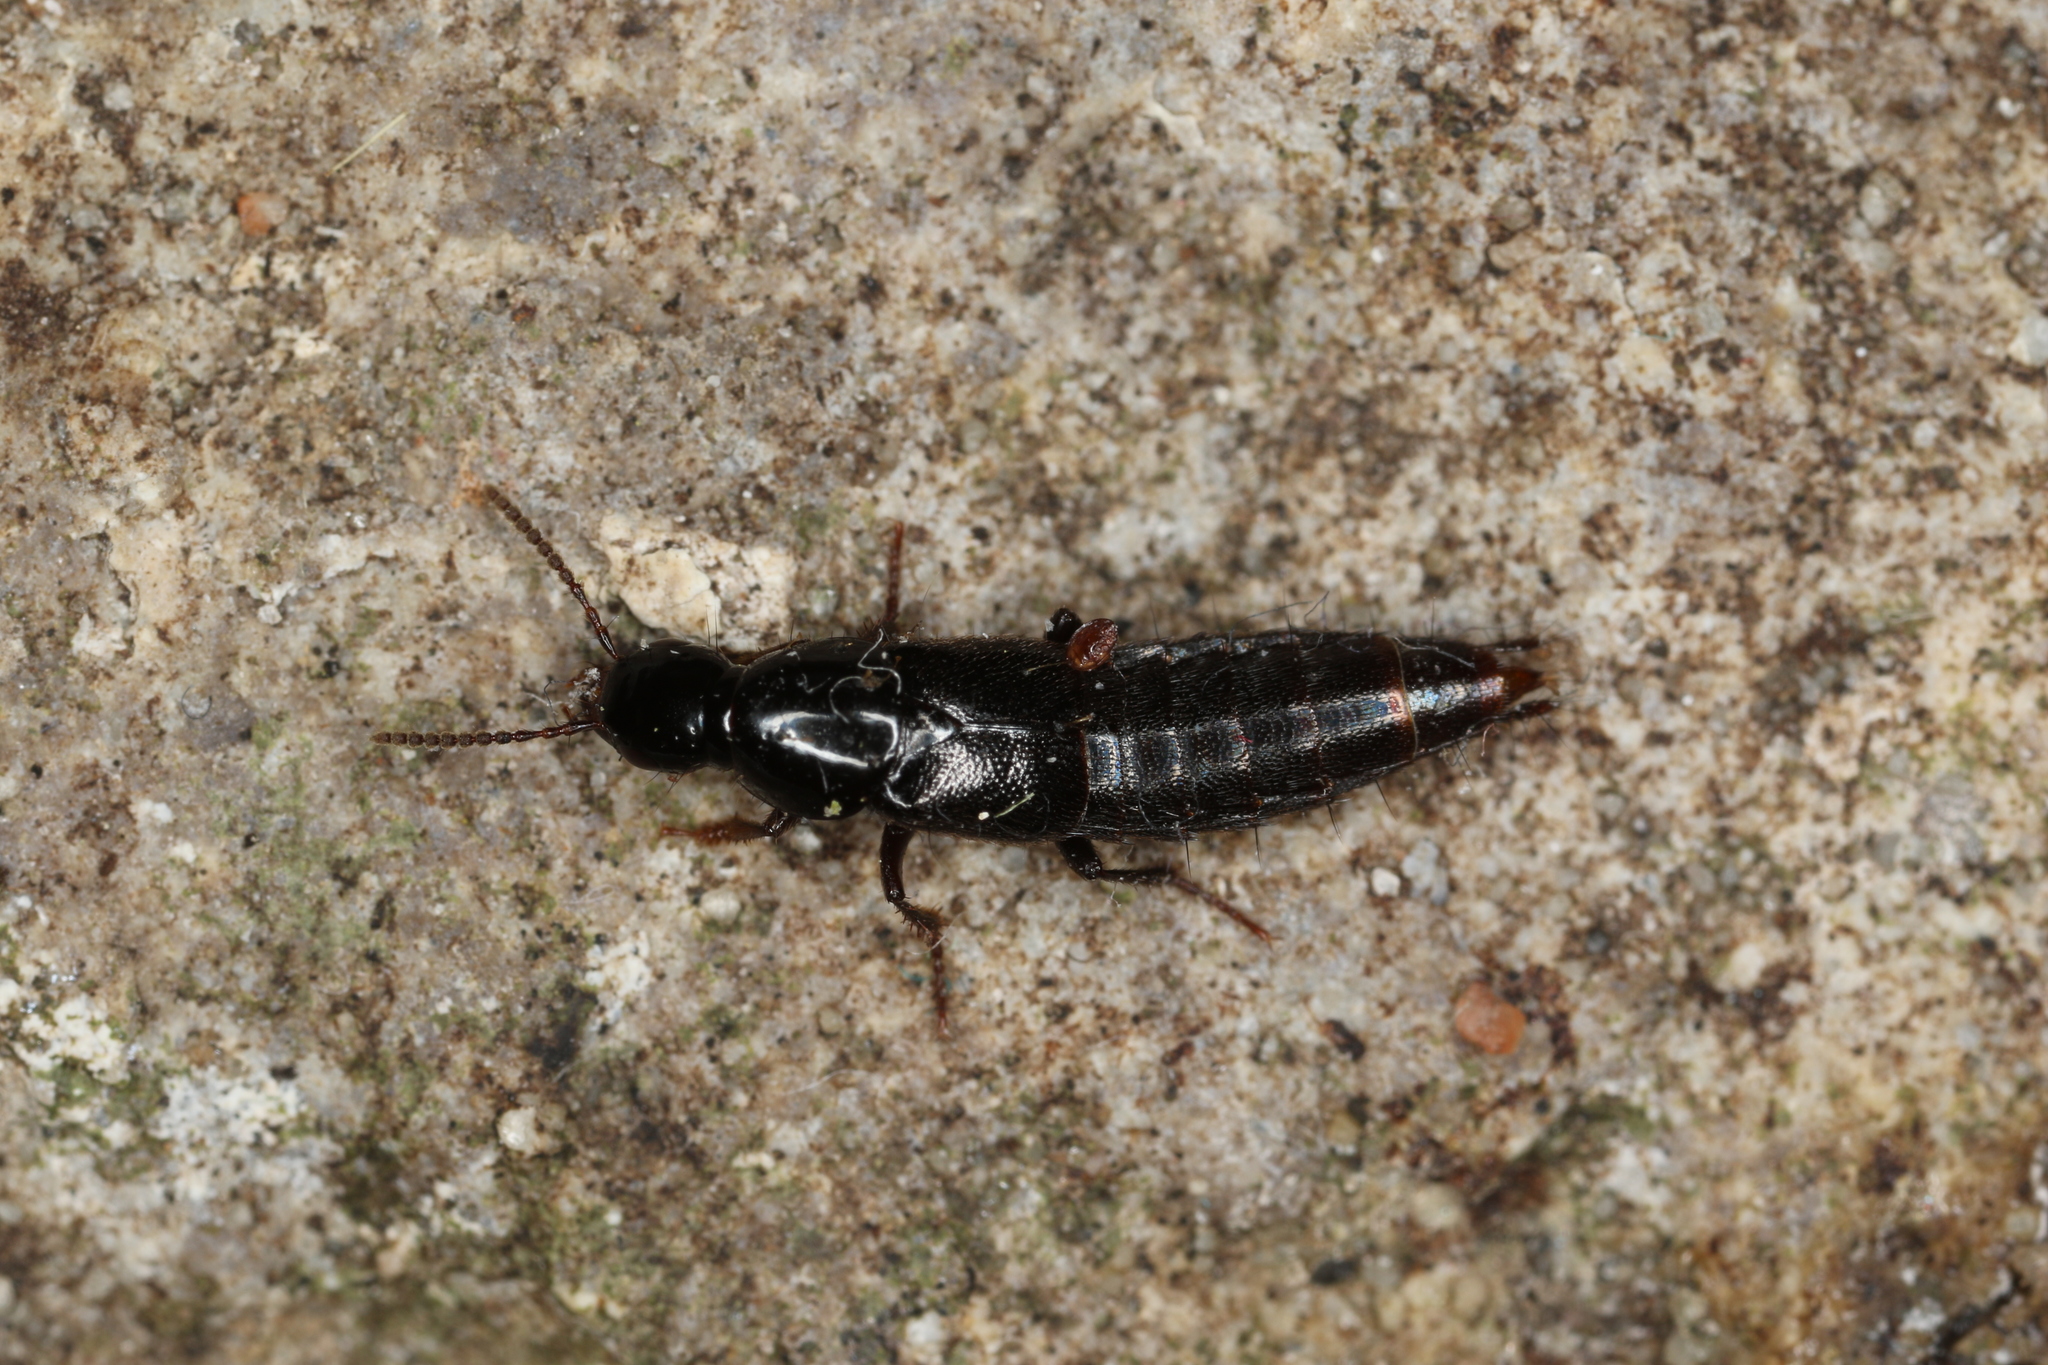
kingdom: Animalia
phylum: Arthropoda
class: Insecta
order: Coleoptera
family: Staphylinidae
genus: Quedius
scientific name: Quedius mesomelinus
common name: Staph beetle
